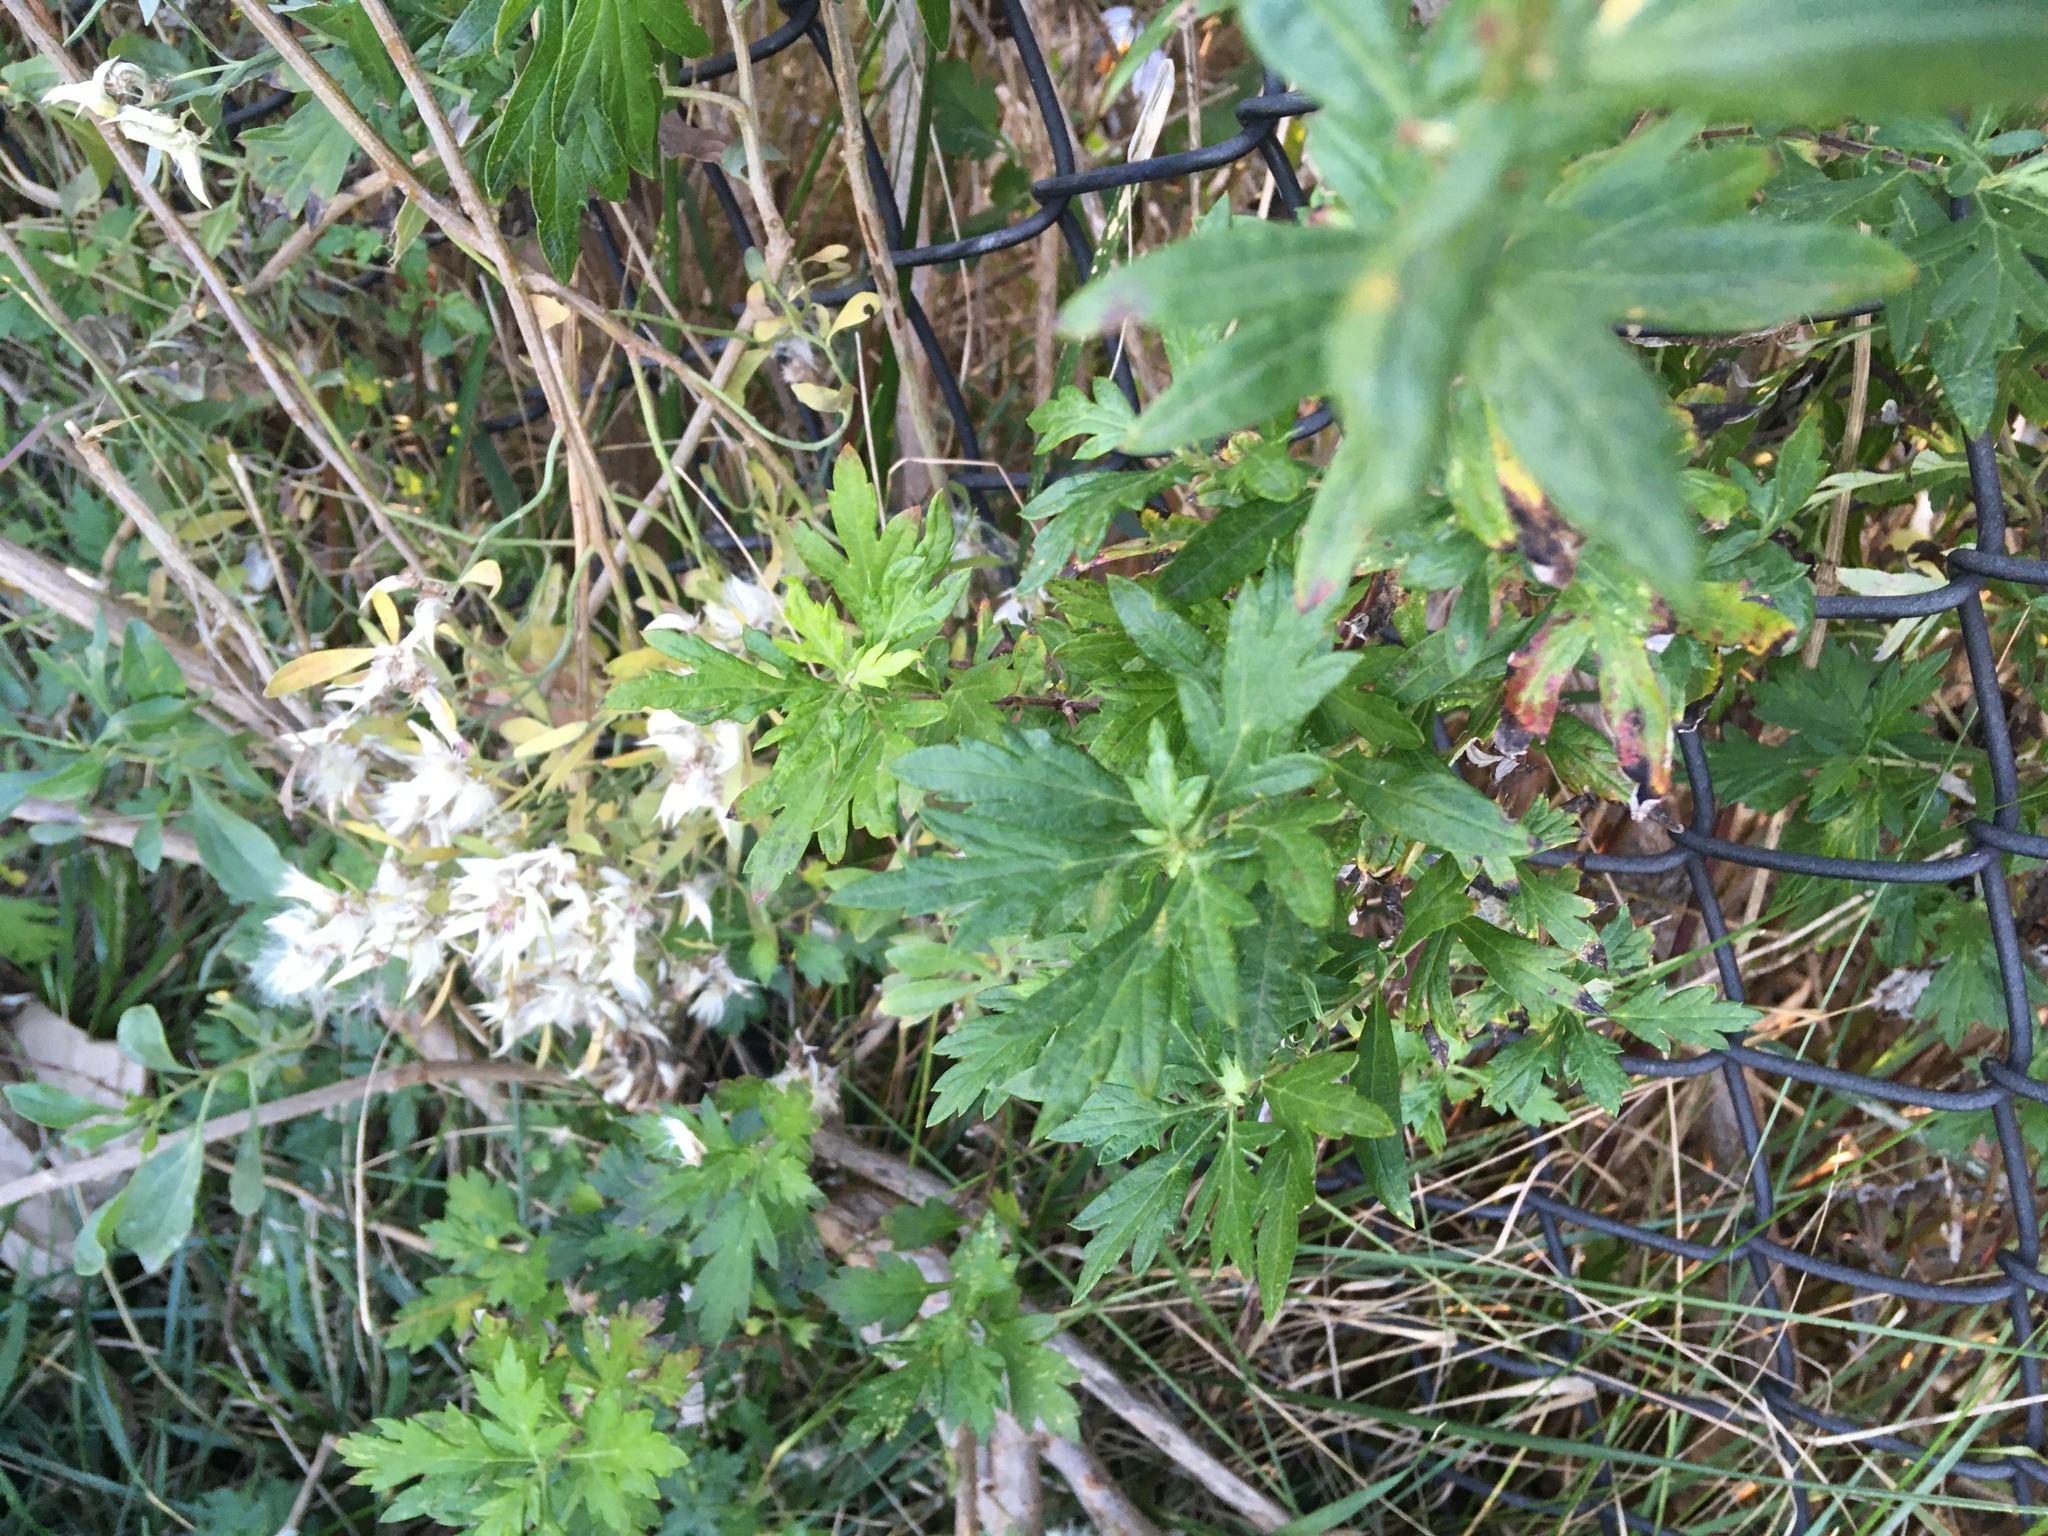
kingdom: Plantae
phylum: Tracheophyta
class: Magnoliopsida
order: Asterales
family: Asteraceae
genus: Artemisia
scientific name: Artemisia vulgaris
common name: Mugwort
